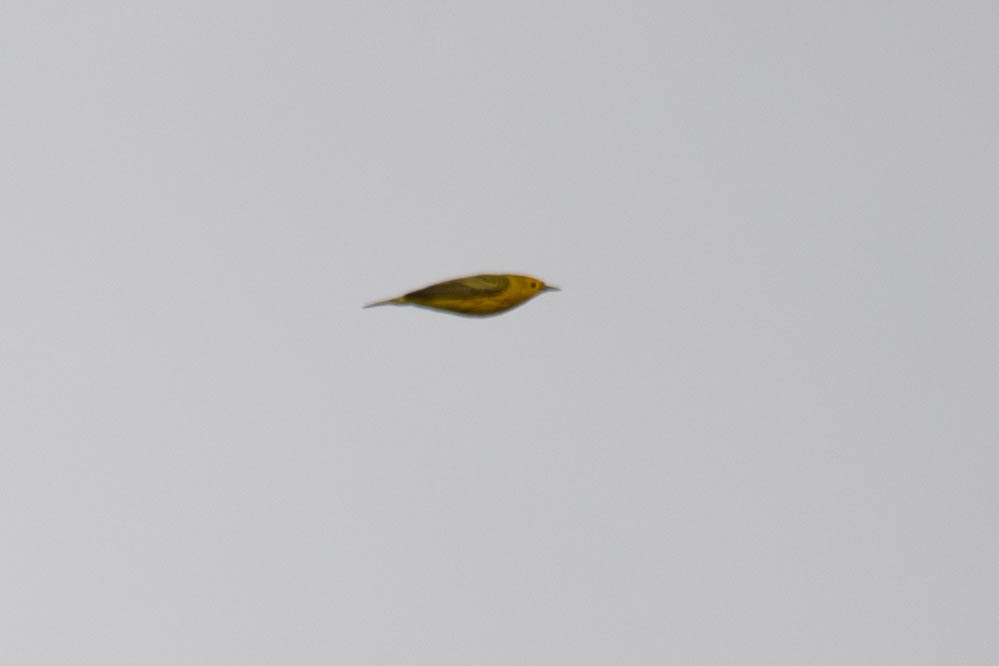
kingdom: Animalia
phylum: Chordata
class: Aves
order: Passeriformes
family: Parulidae
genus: Setophaga
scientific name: Setophaga petechia
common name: Yellow warbler
